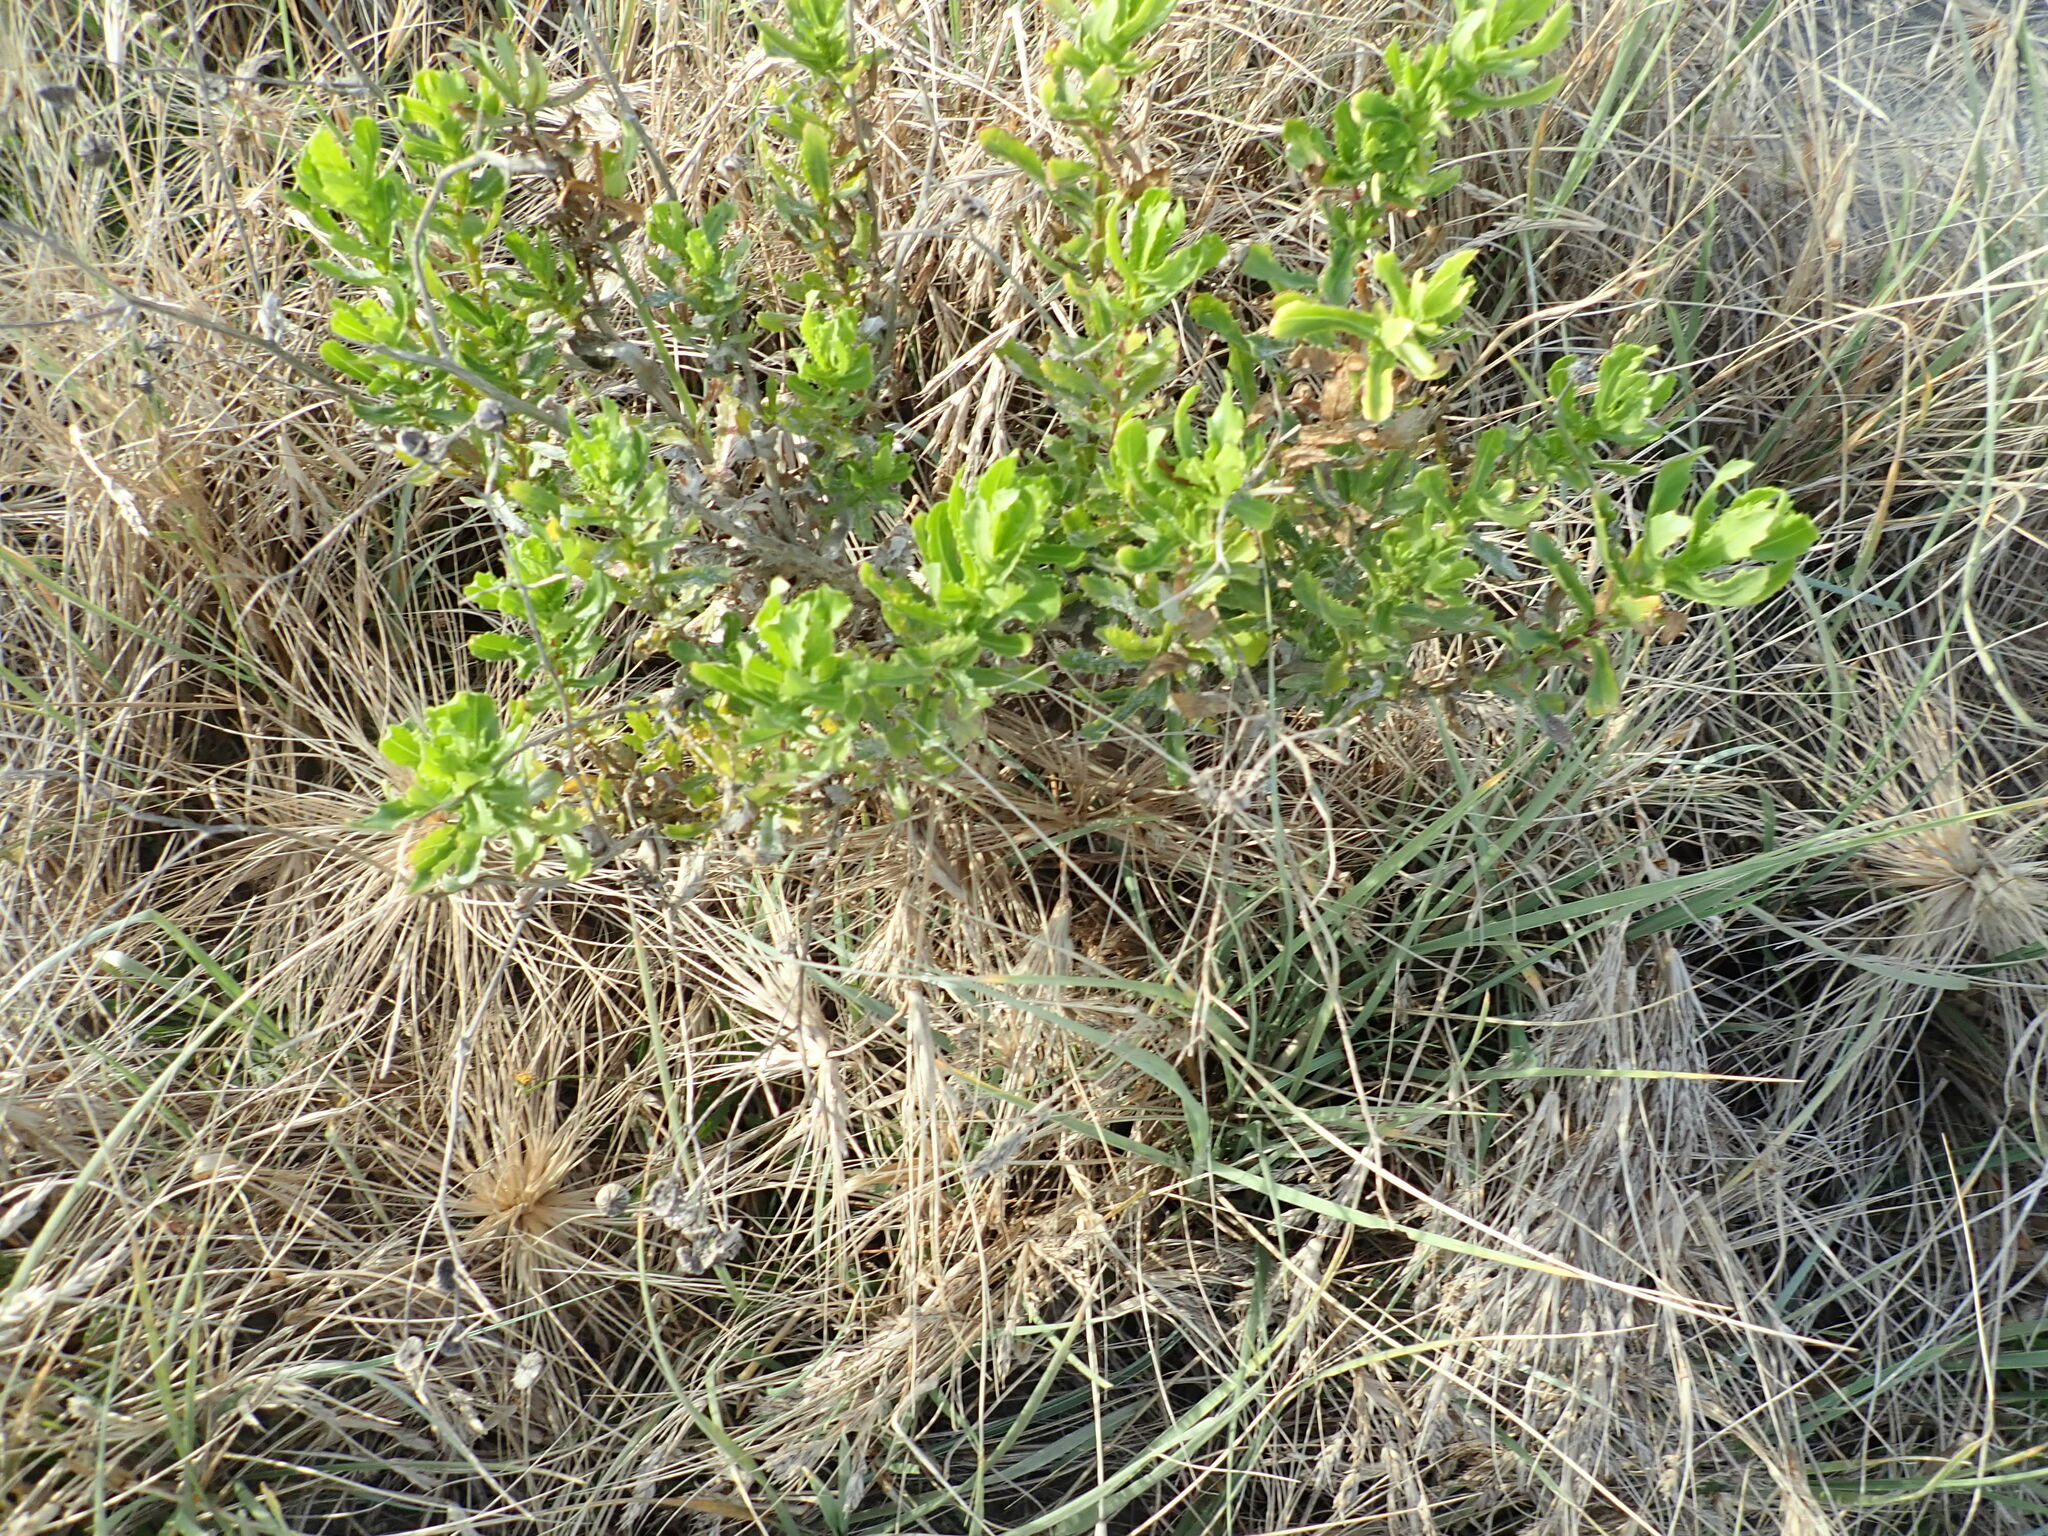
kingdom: Plantae
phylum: Tracheophyta
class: Magnoliopsida
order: Asterales
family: Asteraceae
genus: Senecio
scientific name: Senecio glastifolius
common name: Woad-leaved ragwort
